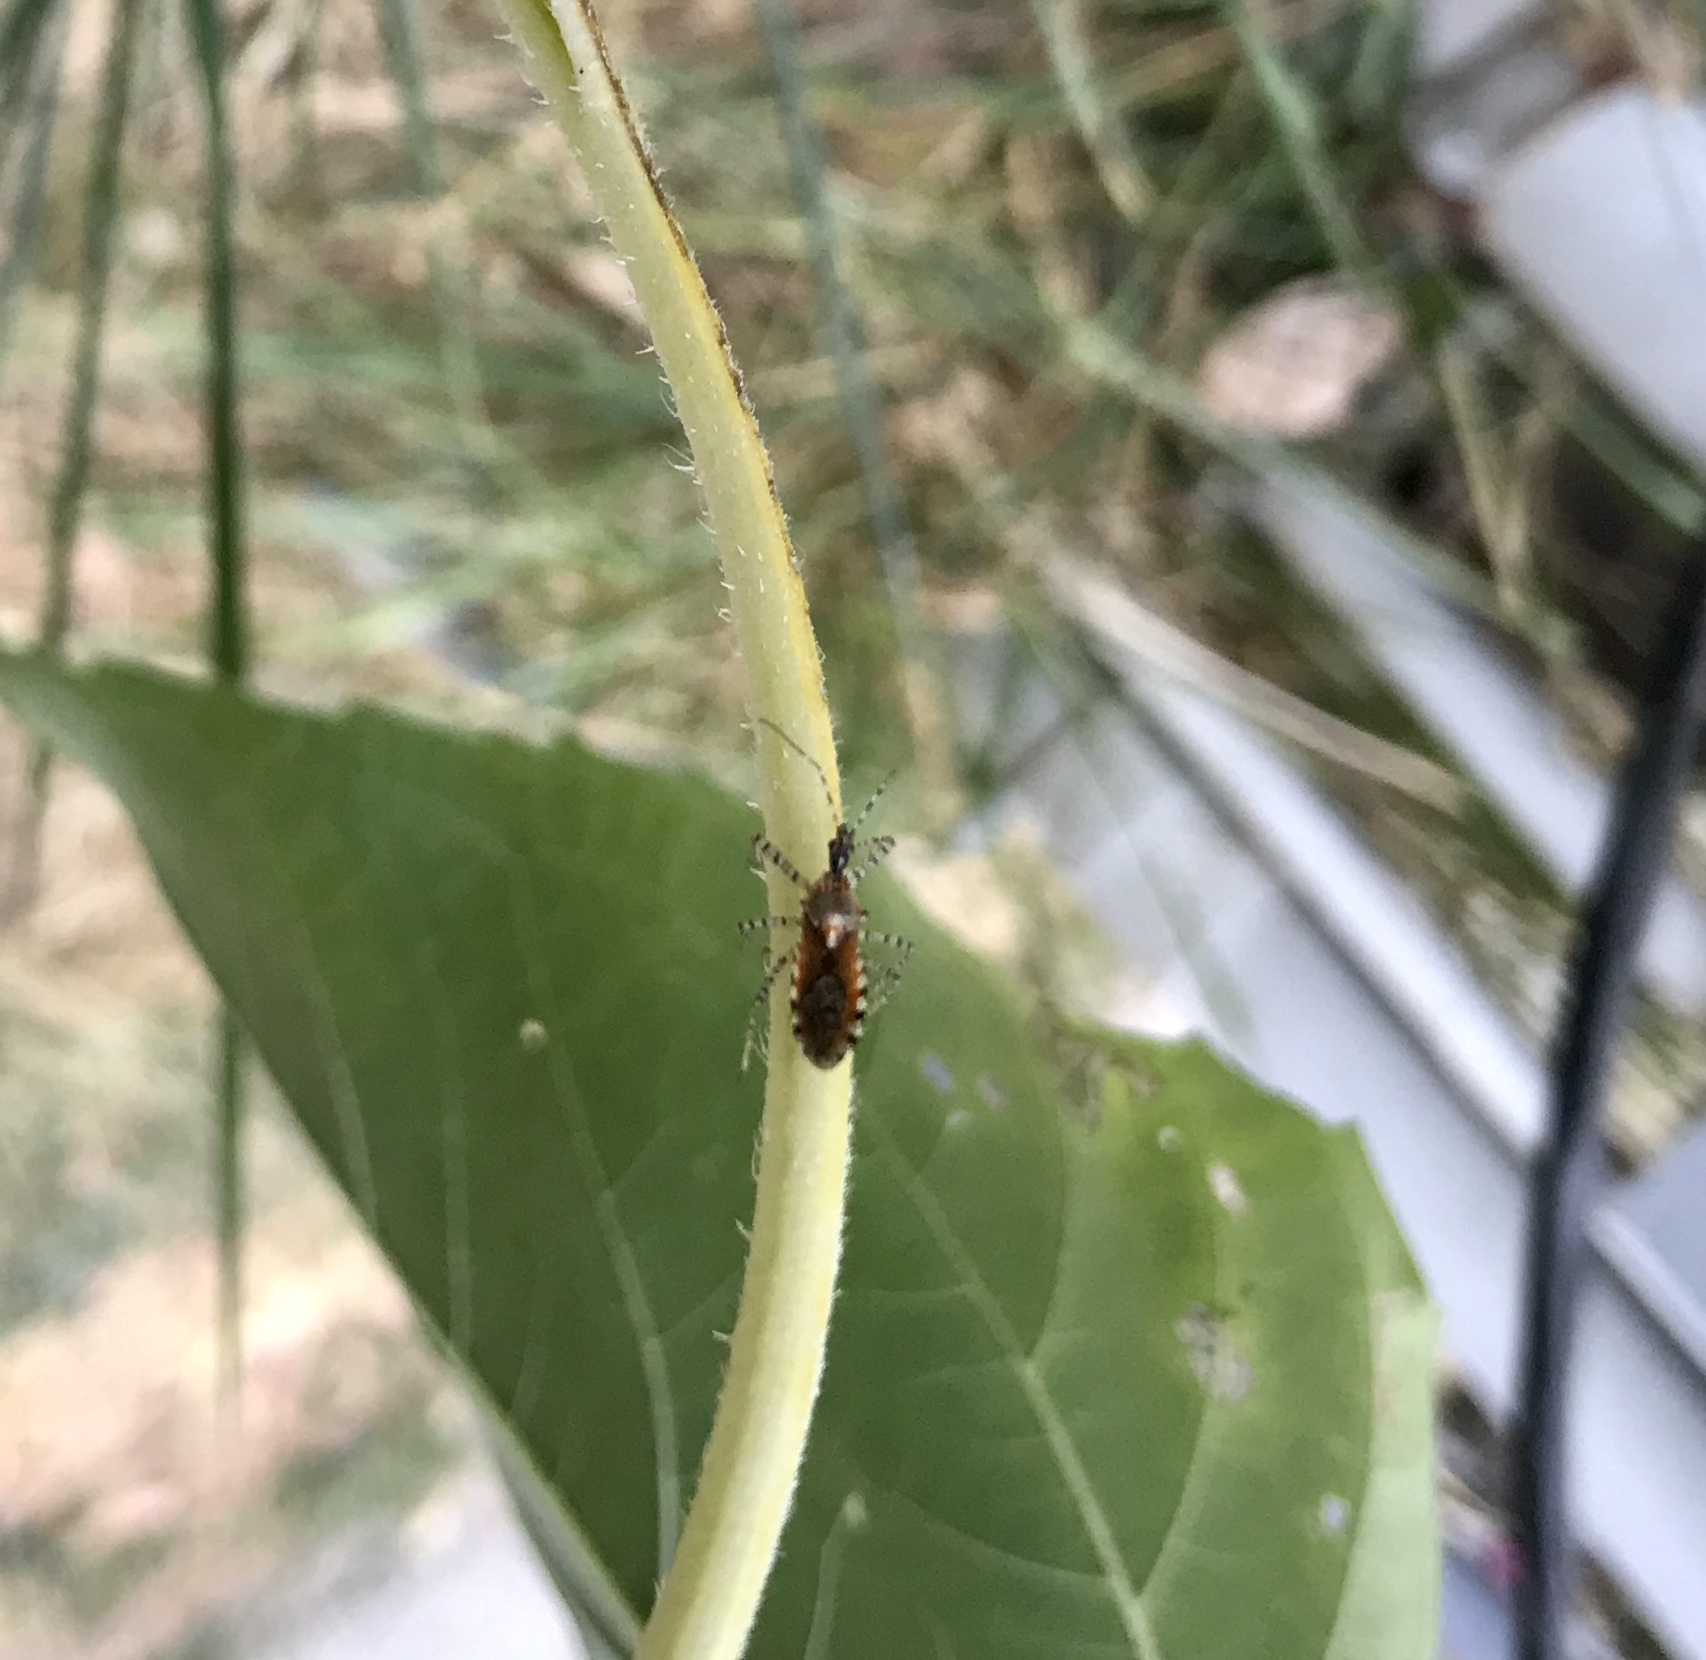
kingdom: Animalia
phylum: Arthropoda
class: Insecta
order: Hemiptera
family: Reduviidae
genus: Pselliopus
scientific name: Pselliopus spinicollis
